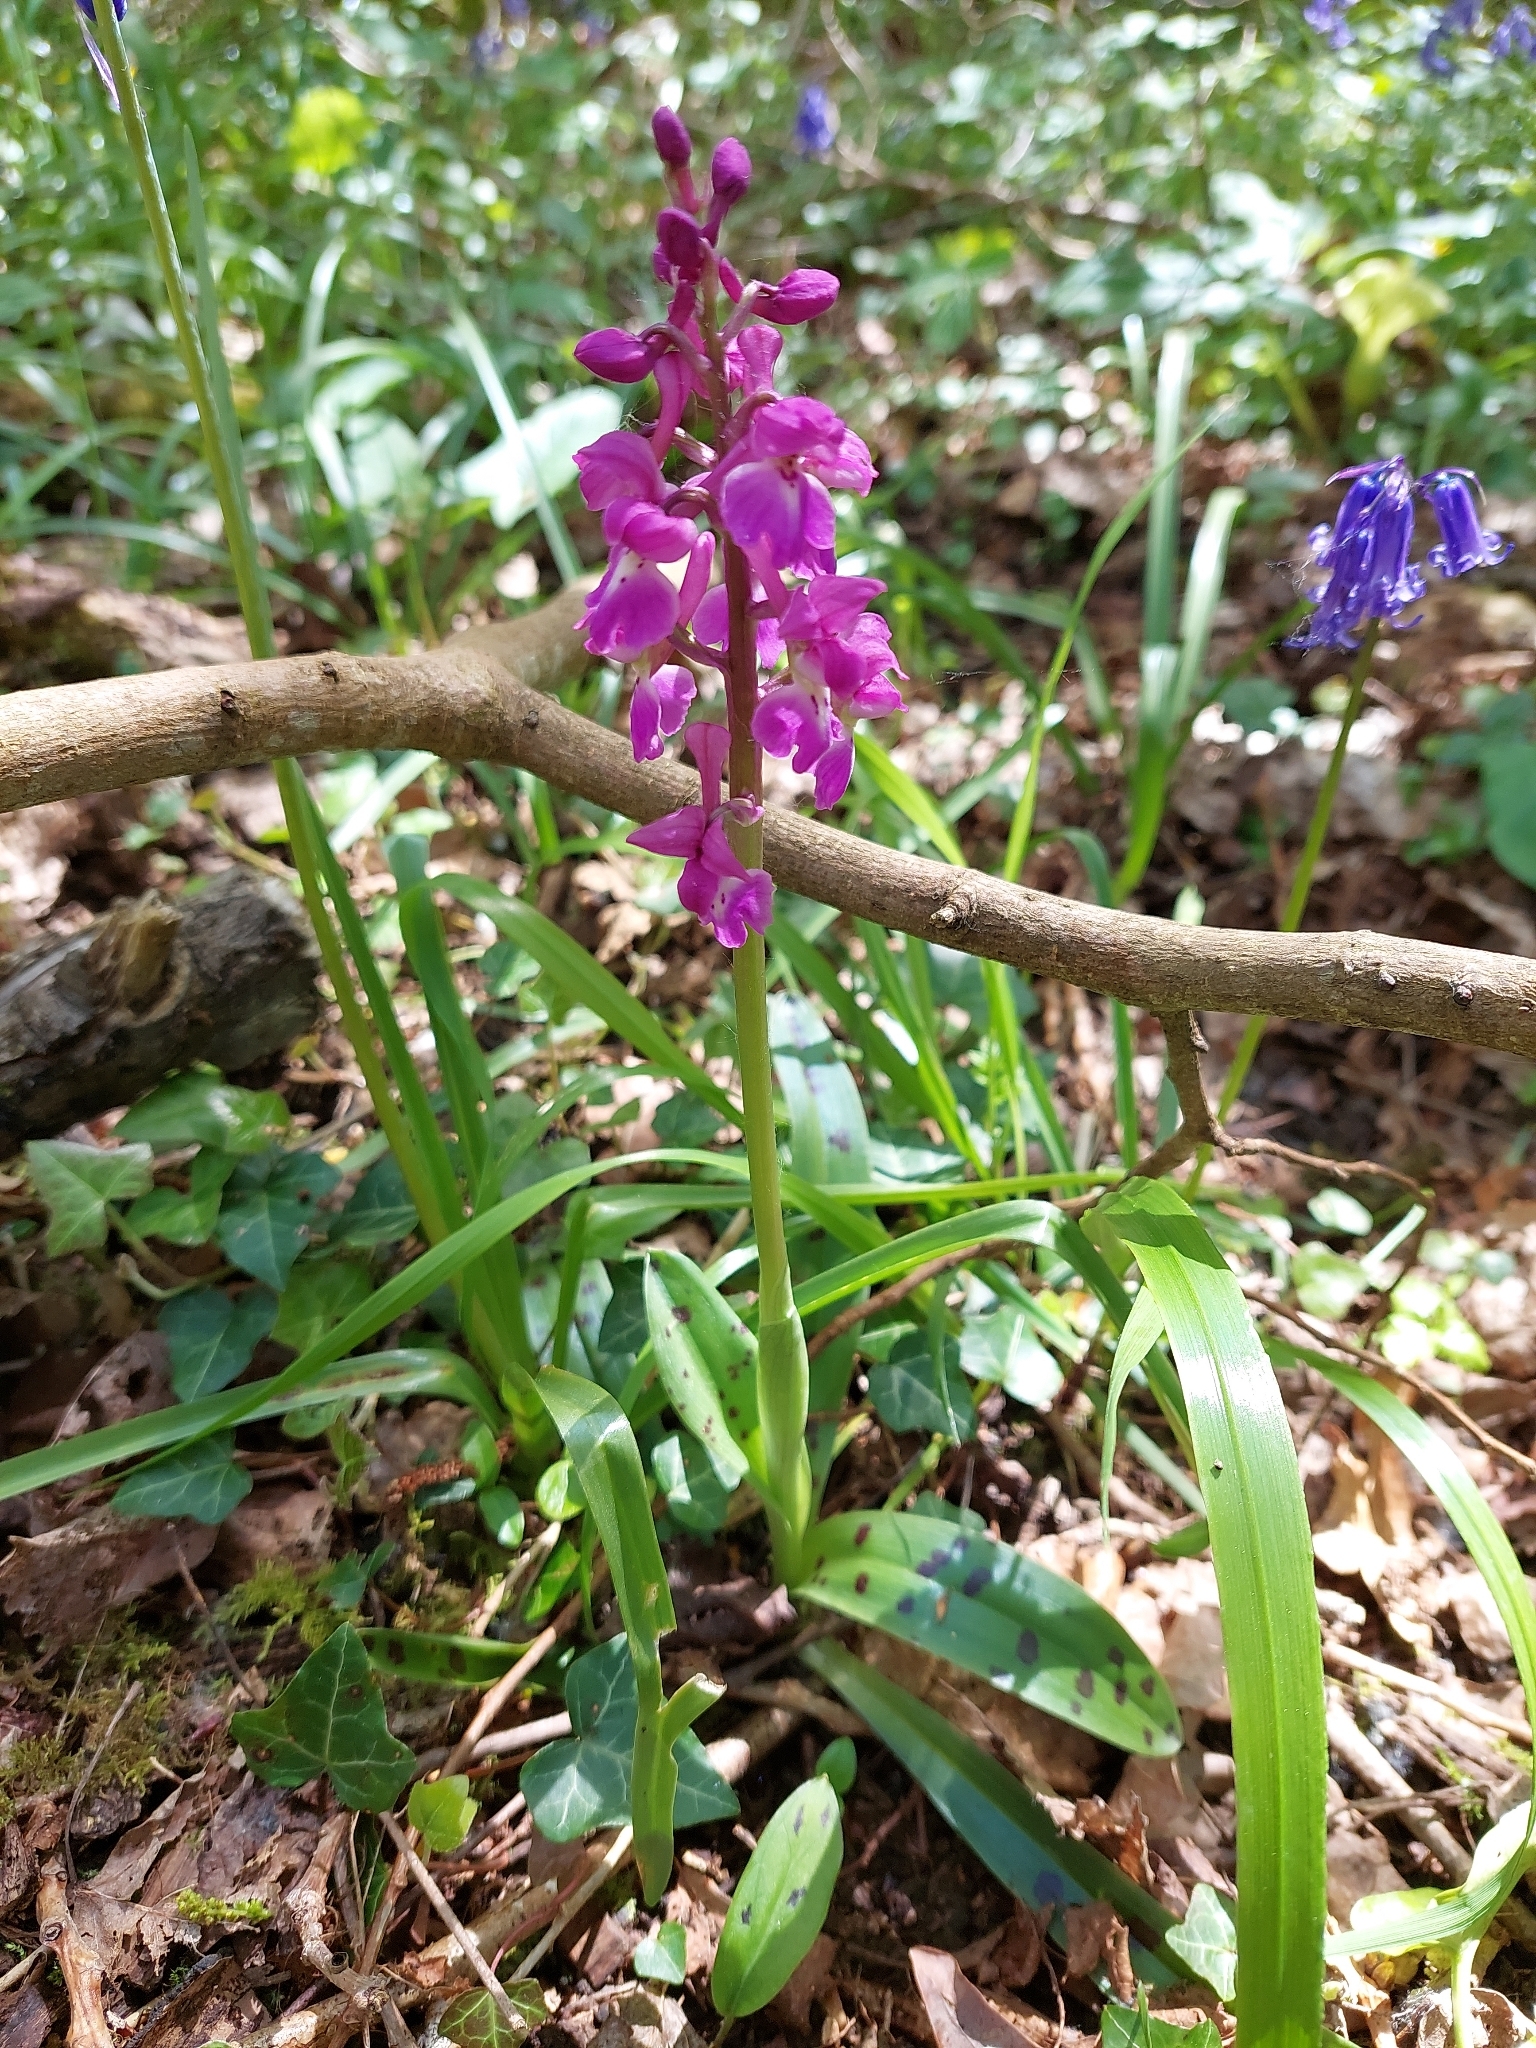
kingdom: Plantae
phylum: Tracheophyta
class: Liliopsida
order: Asparagales
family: Orchidaceae
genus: Orchis
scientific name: Orchis mascula
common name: Early-purple orchid
